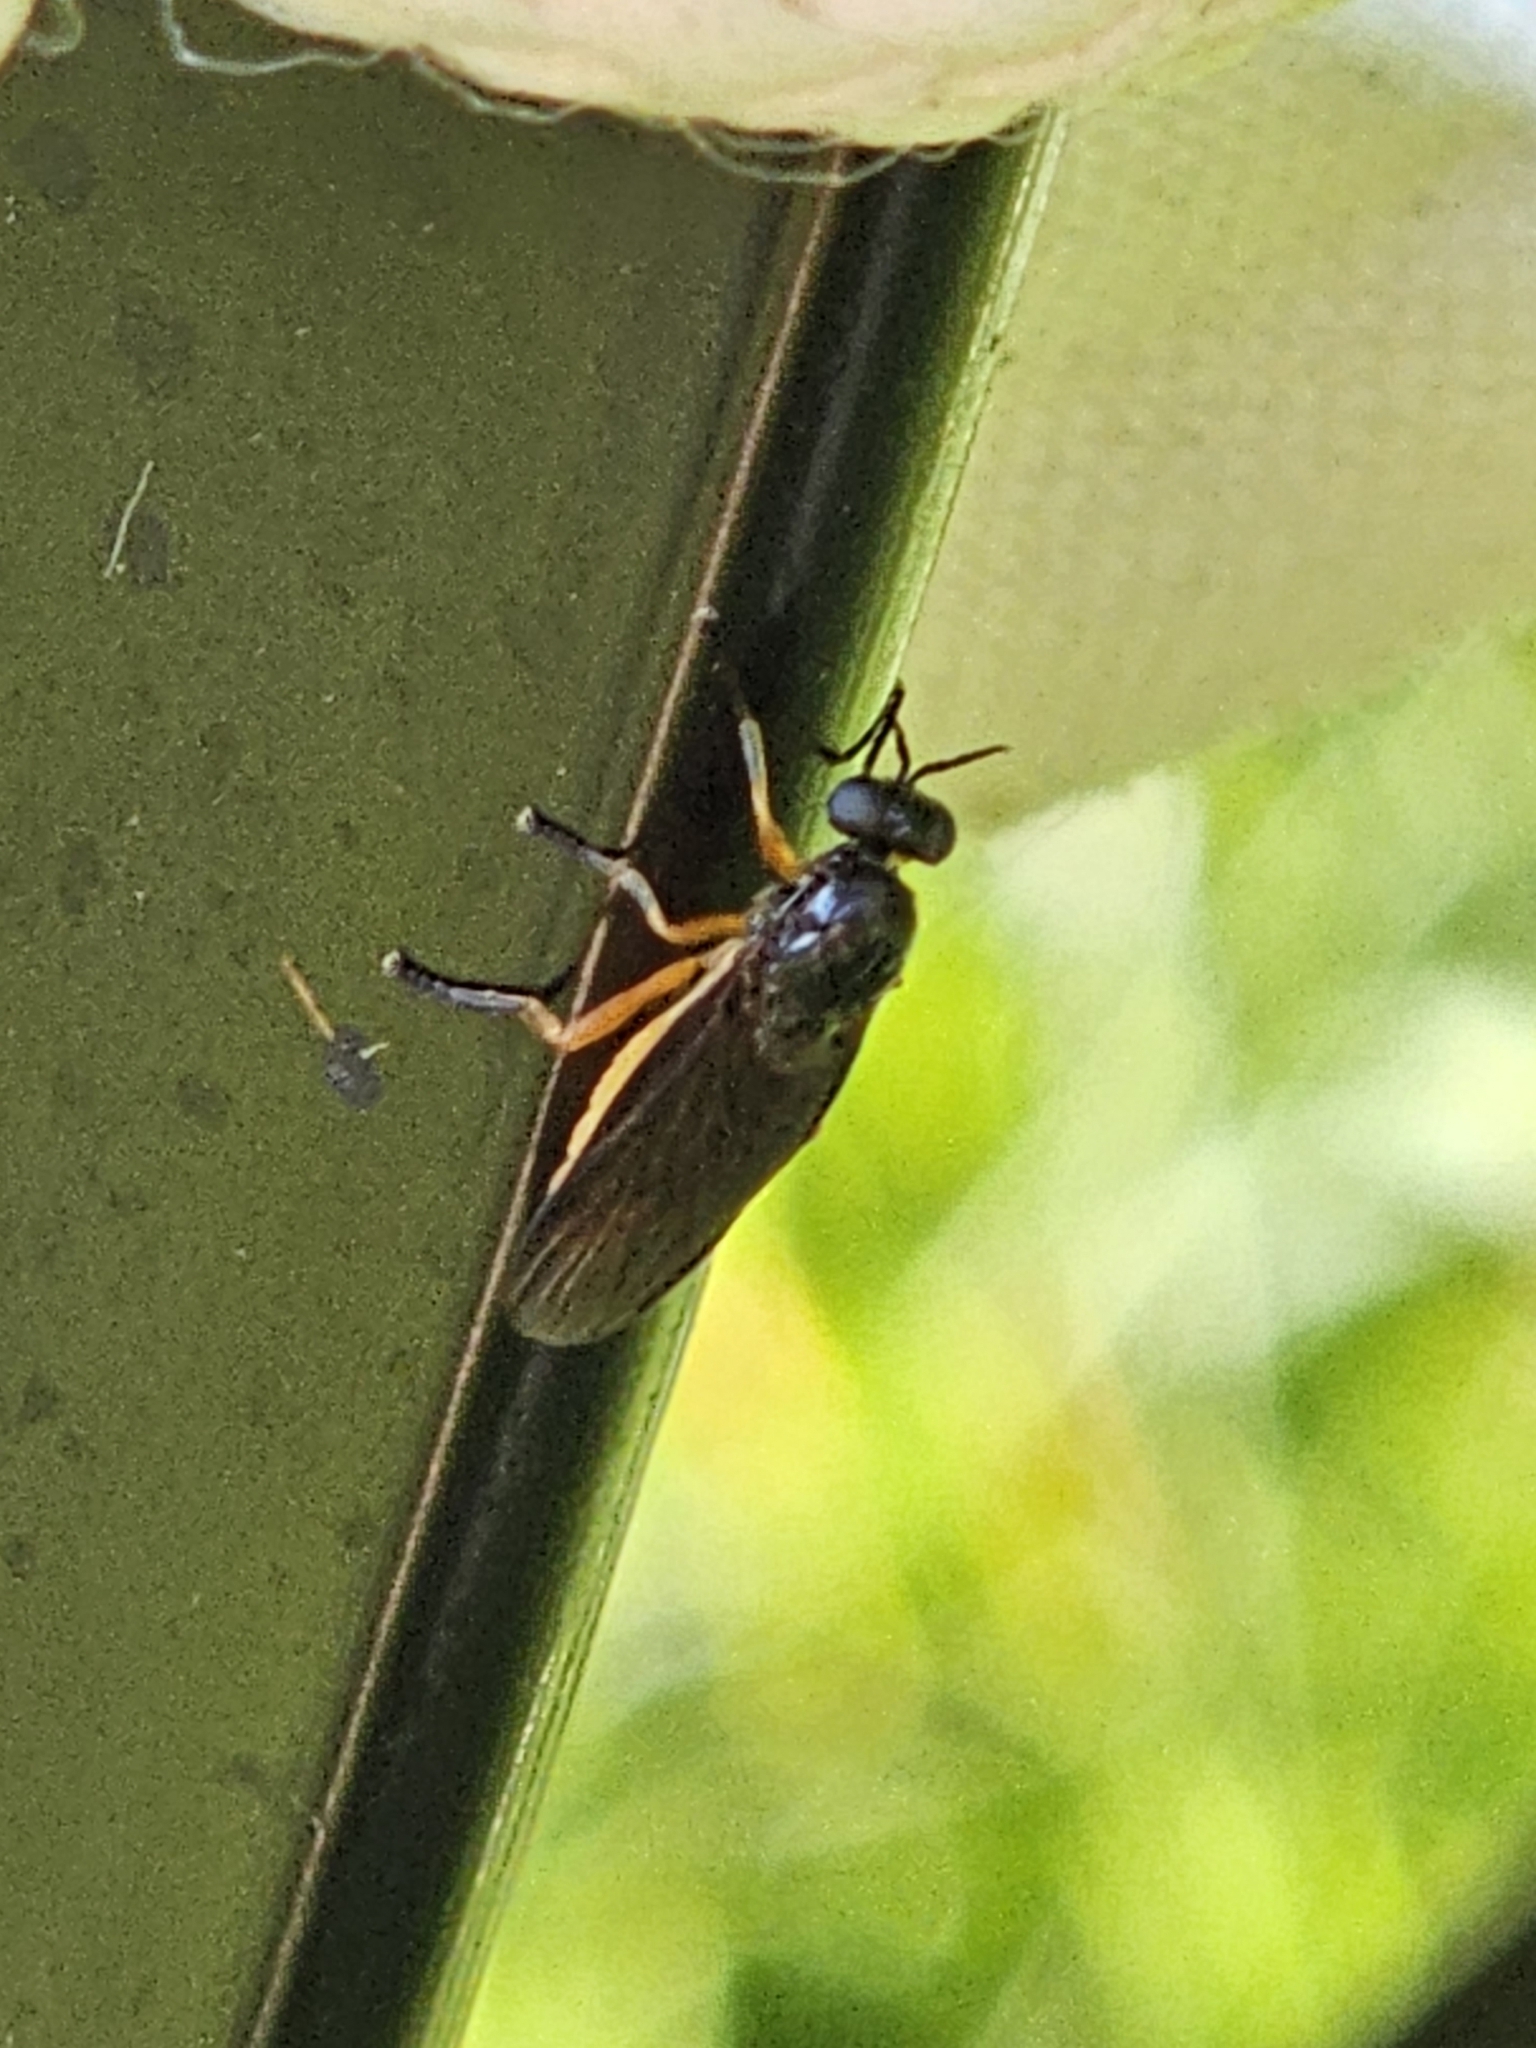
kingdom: Animalia
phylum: Arthropoda
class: Insecta
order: Diptera
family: Stratiomyidae
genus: Beris
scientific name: Beris vallata
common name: Common orange legionnaire
